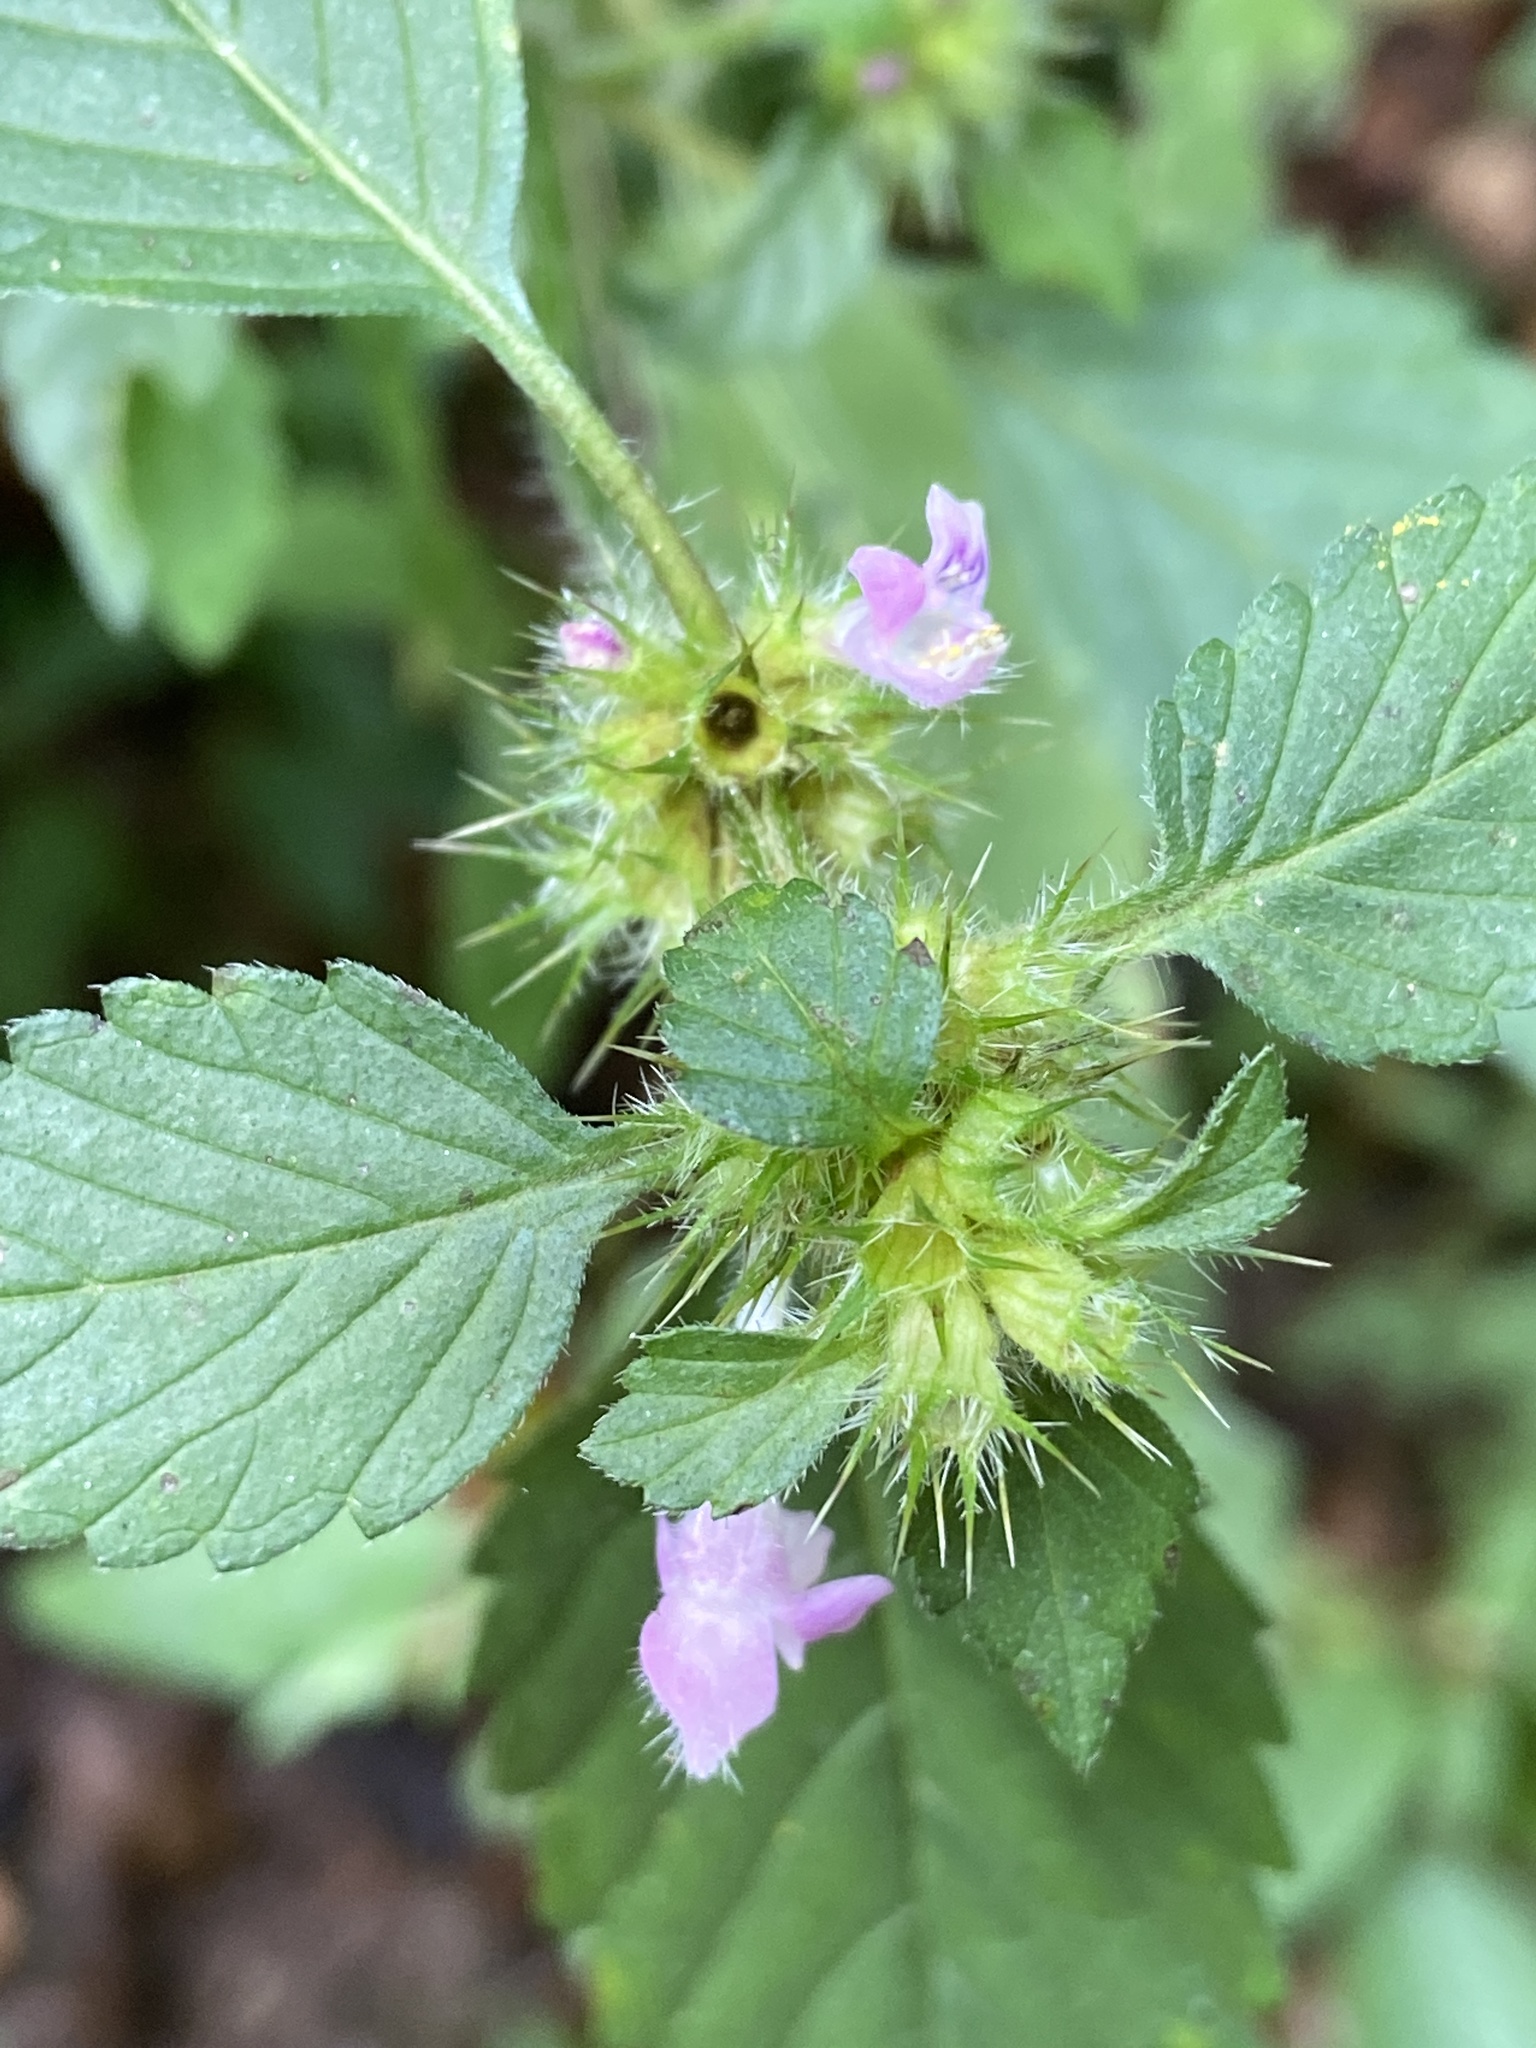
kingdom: Plantae
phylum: Tracheophyta
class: Magnoliopsida
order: Lamiales
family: Lamiaceae
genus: Galeopsis
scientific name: Galeopsis tetrahit
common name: Common hemp-nettle
